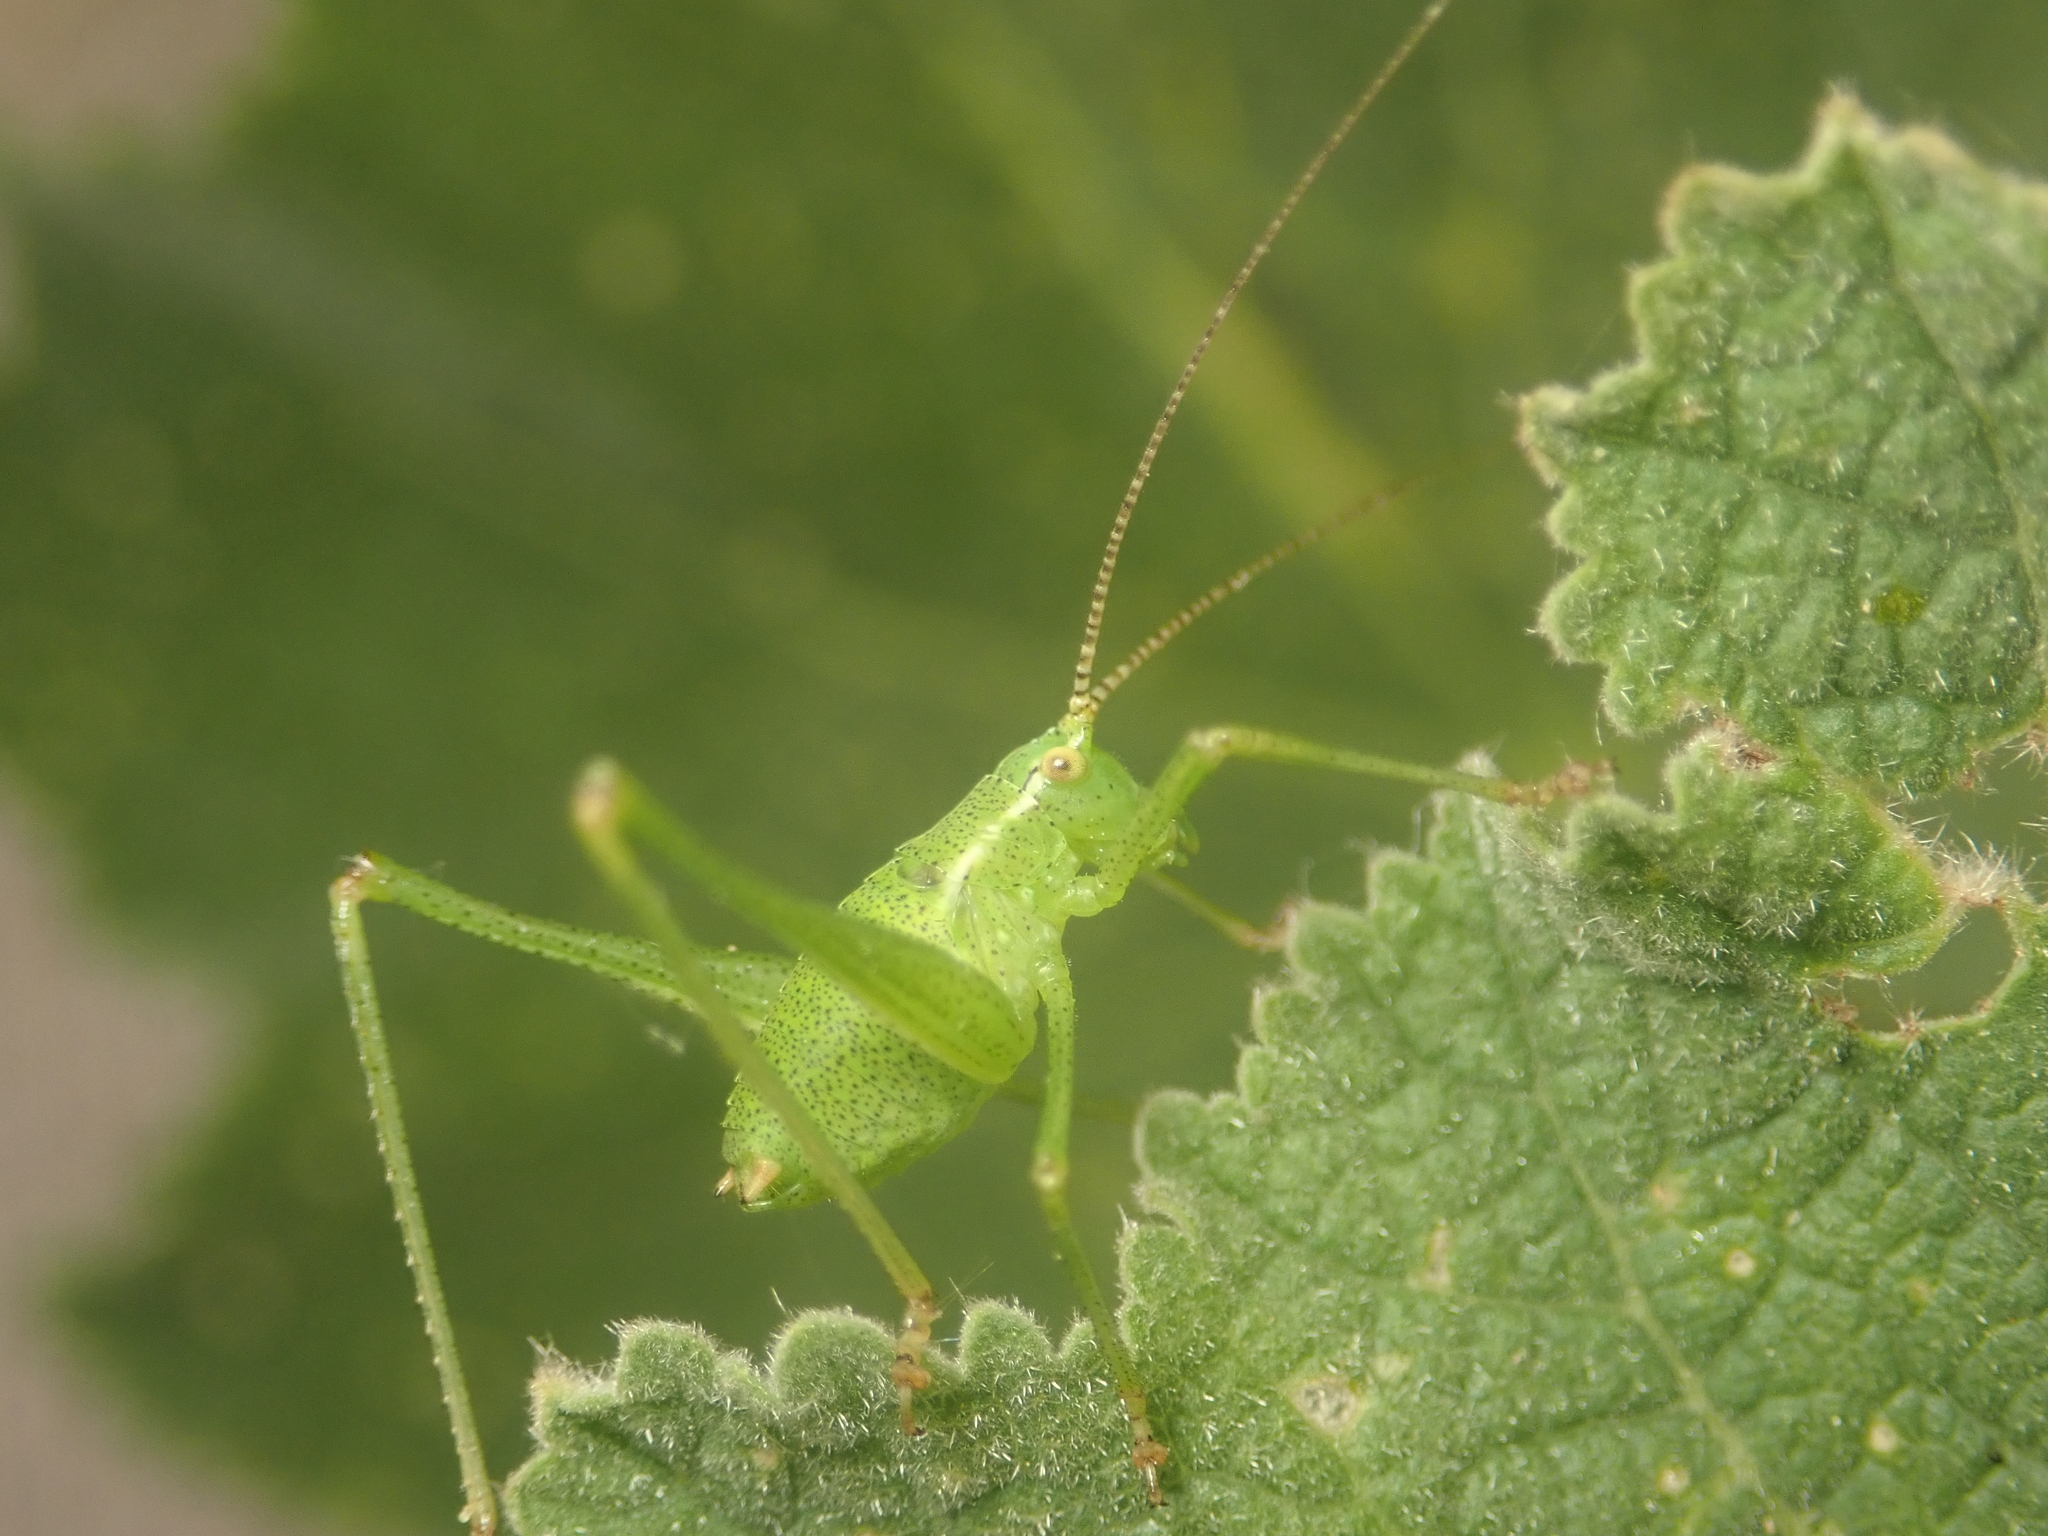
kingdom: Animalia
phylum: Arthropoda
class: Insecta
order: Orthoptera
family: Tettigoniidae
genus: Leptophyes
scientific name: Leptophyes punctatissima
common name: Speckled bush-cricket
